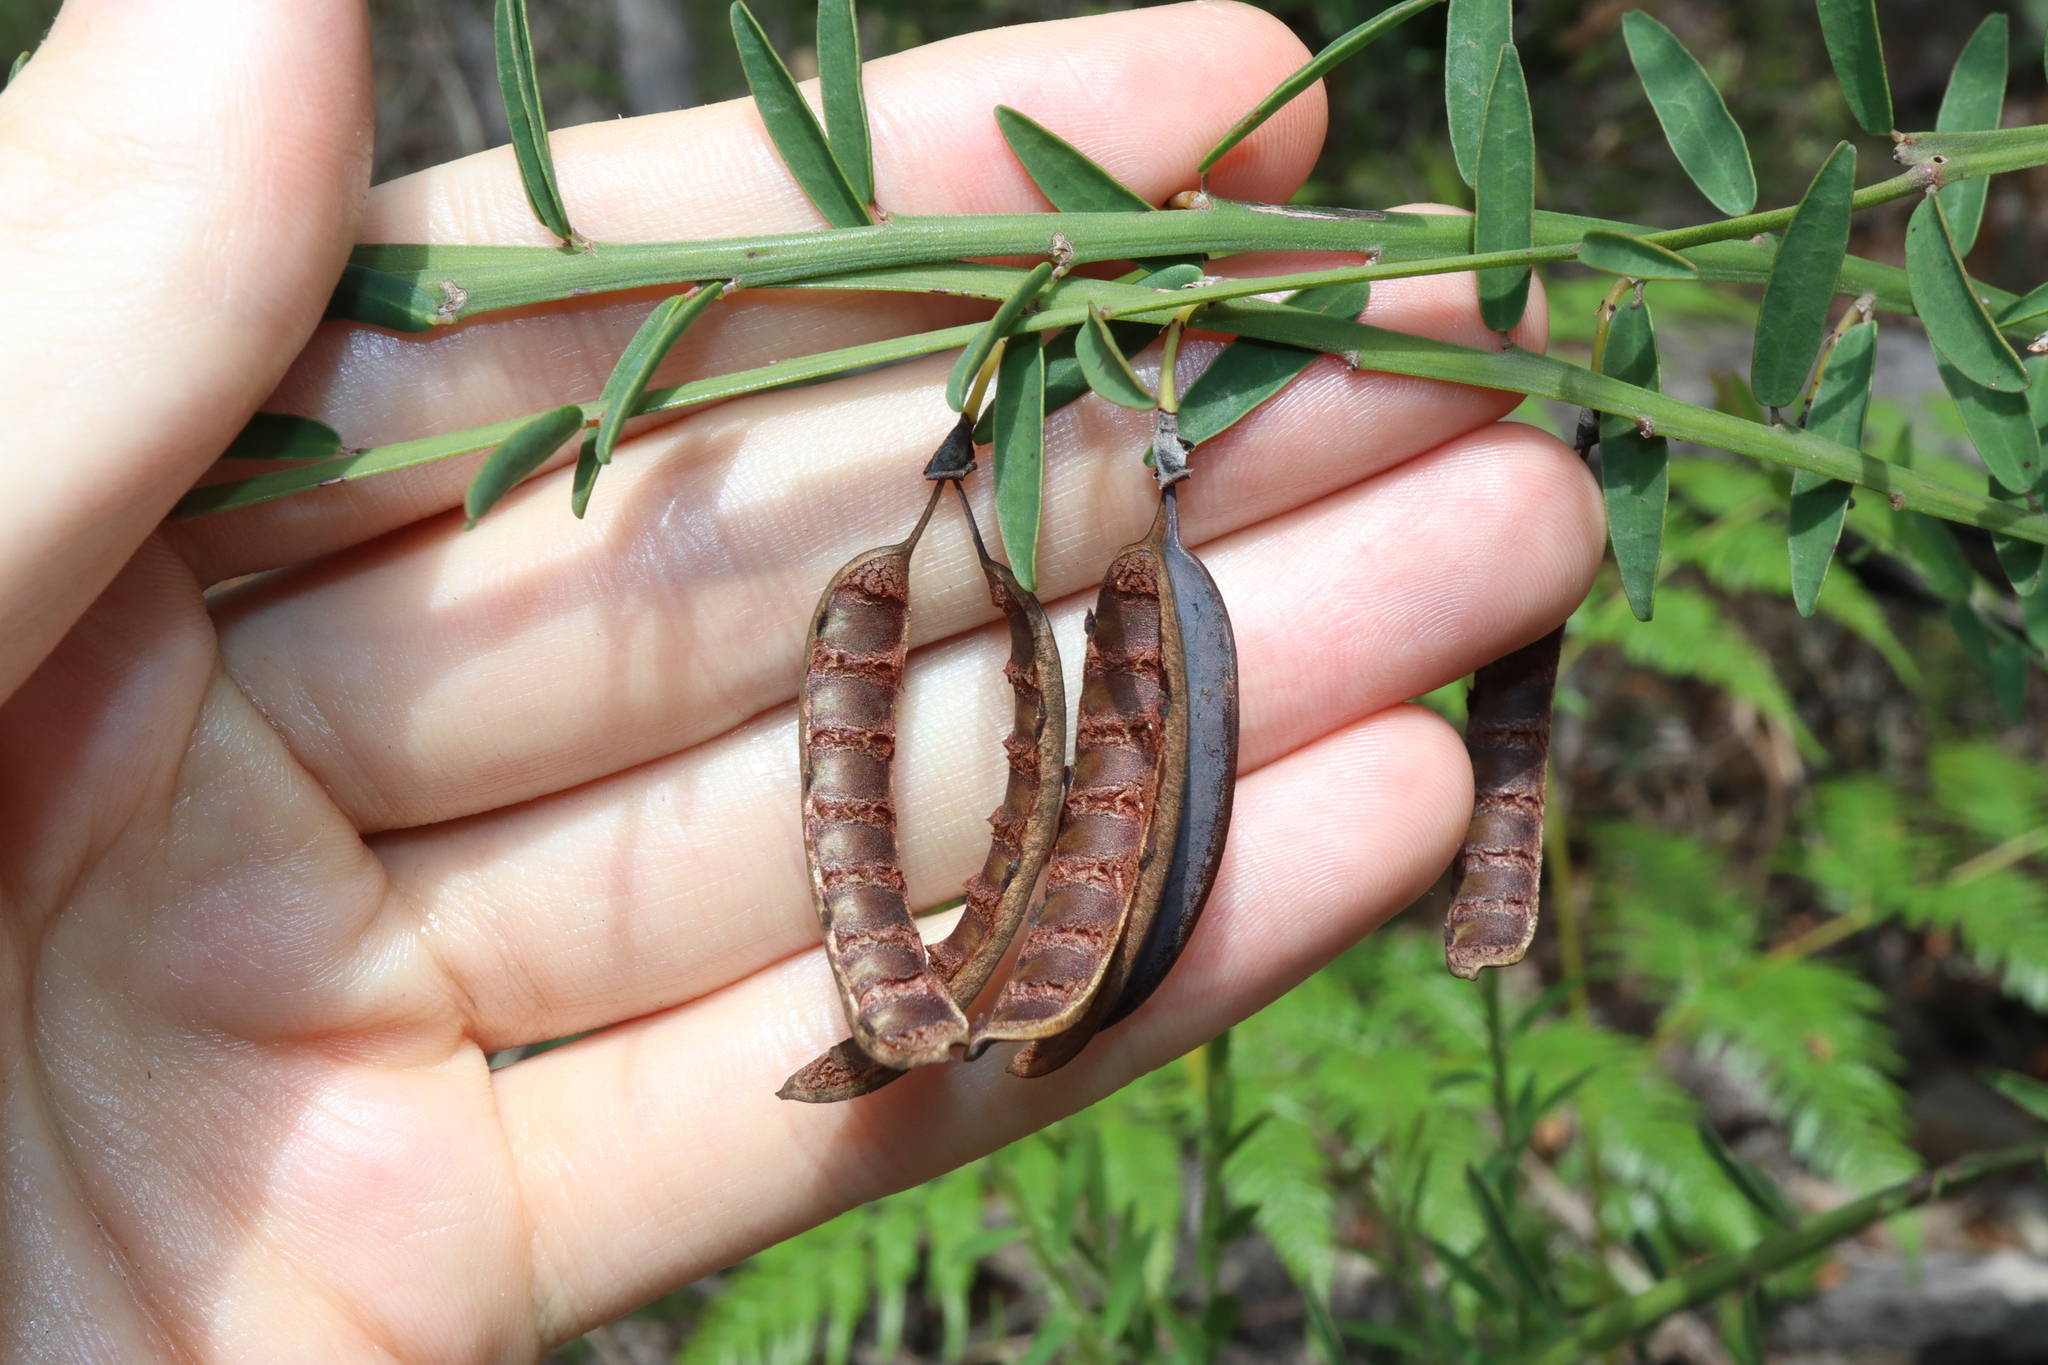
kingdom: Plantae
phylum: Tracheophyta
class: Magnoliopsida
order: Fabales
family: Fabaceae
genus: Bossiaea
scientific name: Bossiaea heterophylla
